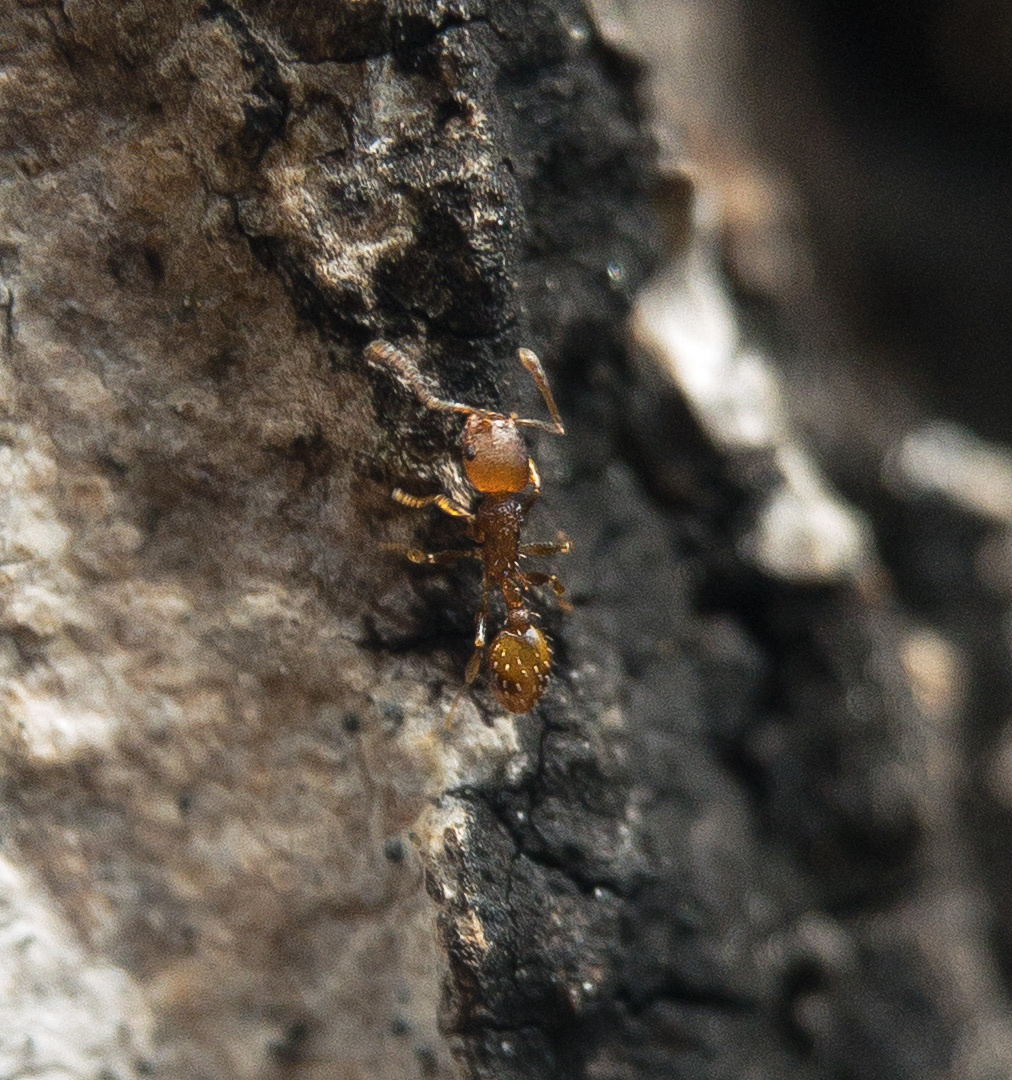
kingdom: Animalia
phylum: Arthropoda
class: Insecta
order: Hymenoptera
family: Formicidae
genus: Temnothorax
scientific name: Temnothorax curvispinosus
